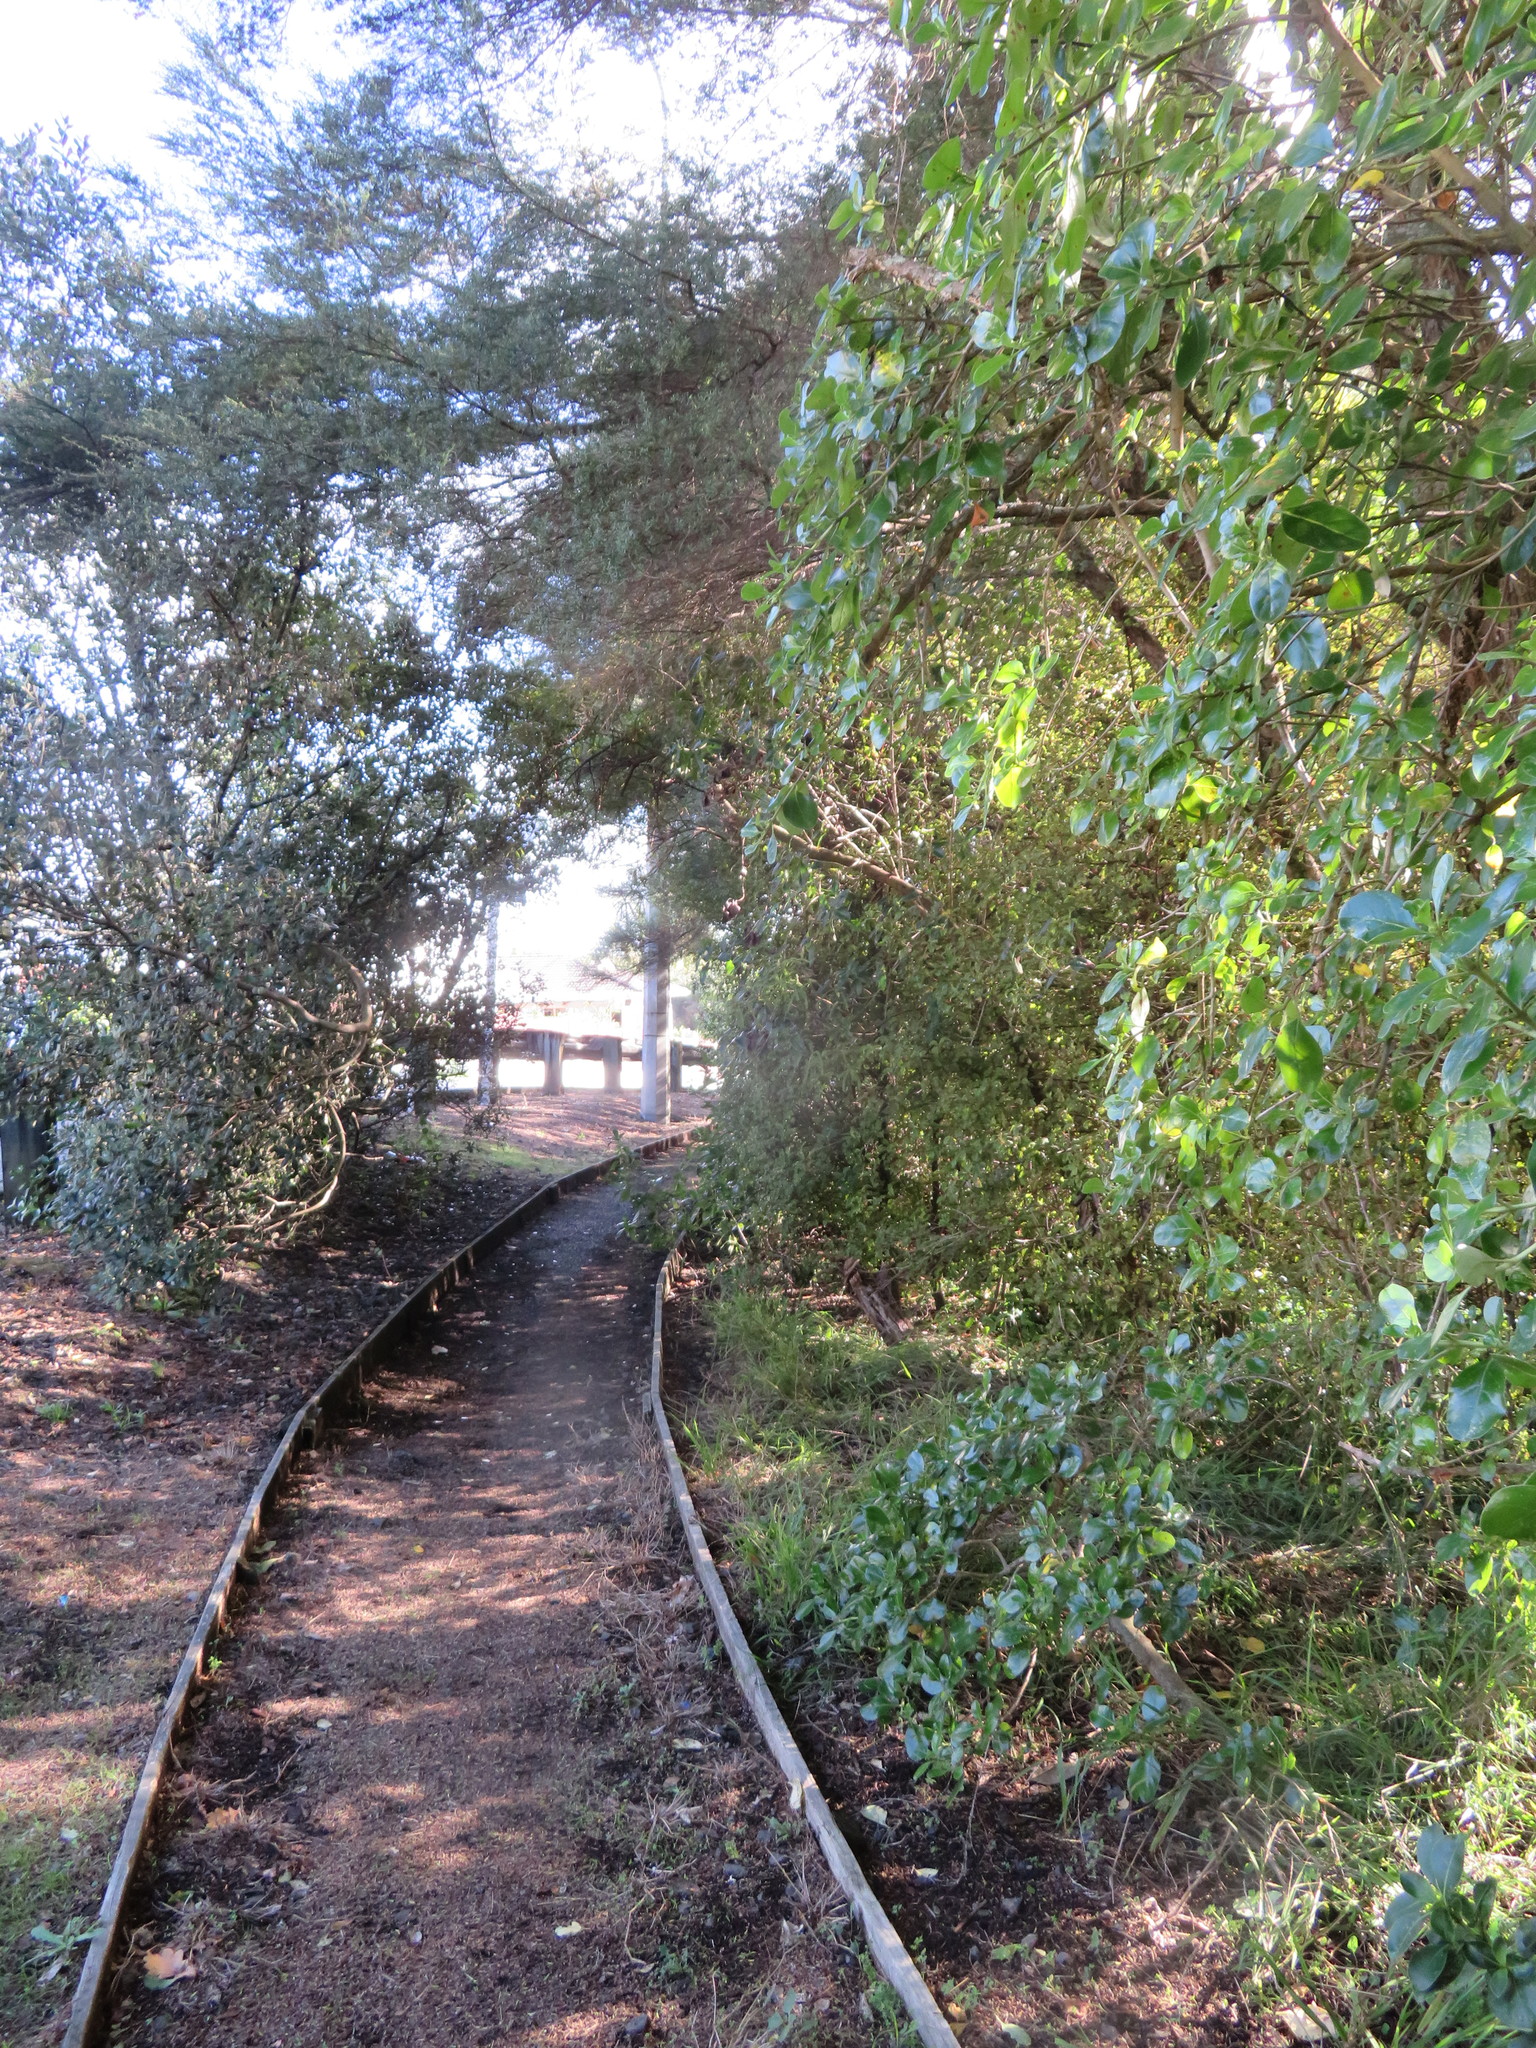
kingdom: Plantae
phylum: Tracheophyta
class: Magnoliopsida
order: Myrtales
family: Myrtaceae
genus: Kunzea
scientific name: Kunzea robusta
